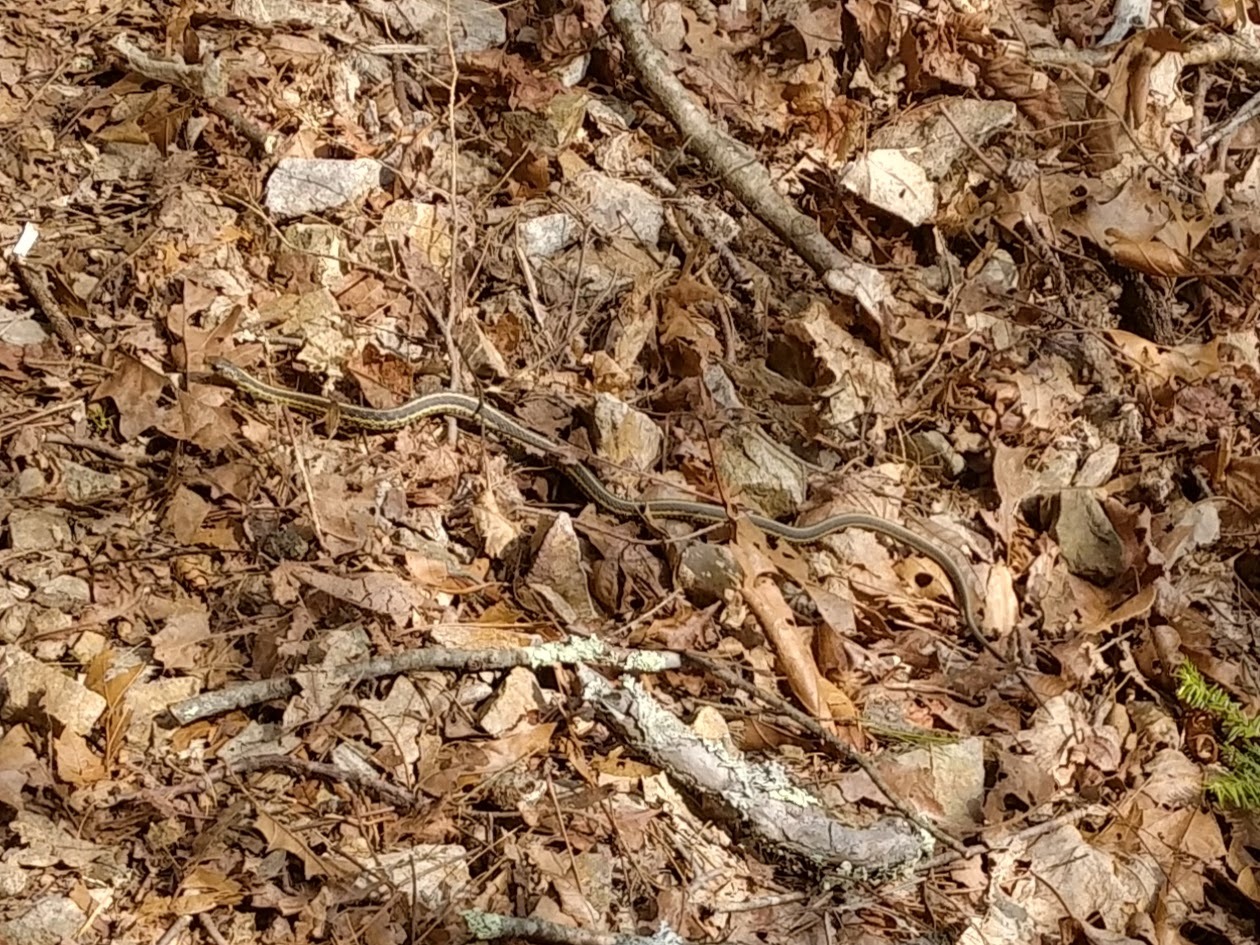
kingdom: Animalia
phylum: Chordata
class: Squamata
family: Colubridae
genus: Thamnophis
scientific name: Thamnophis sirtalis
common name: Common garter snake
